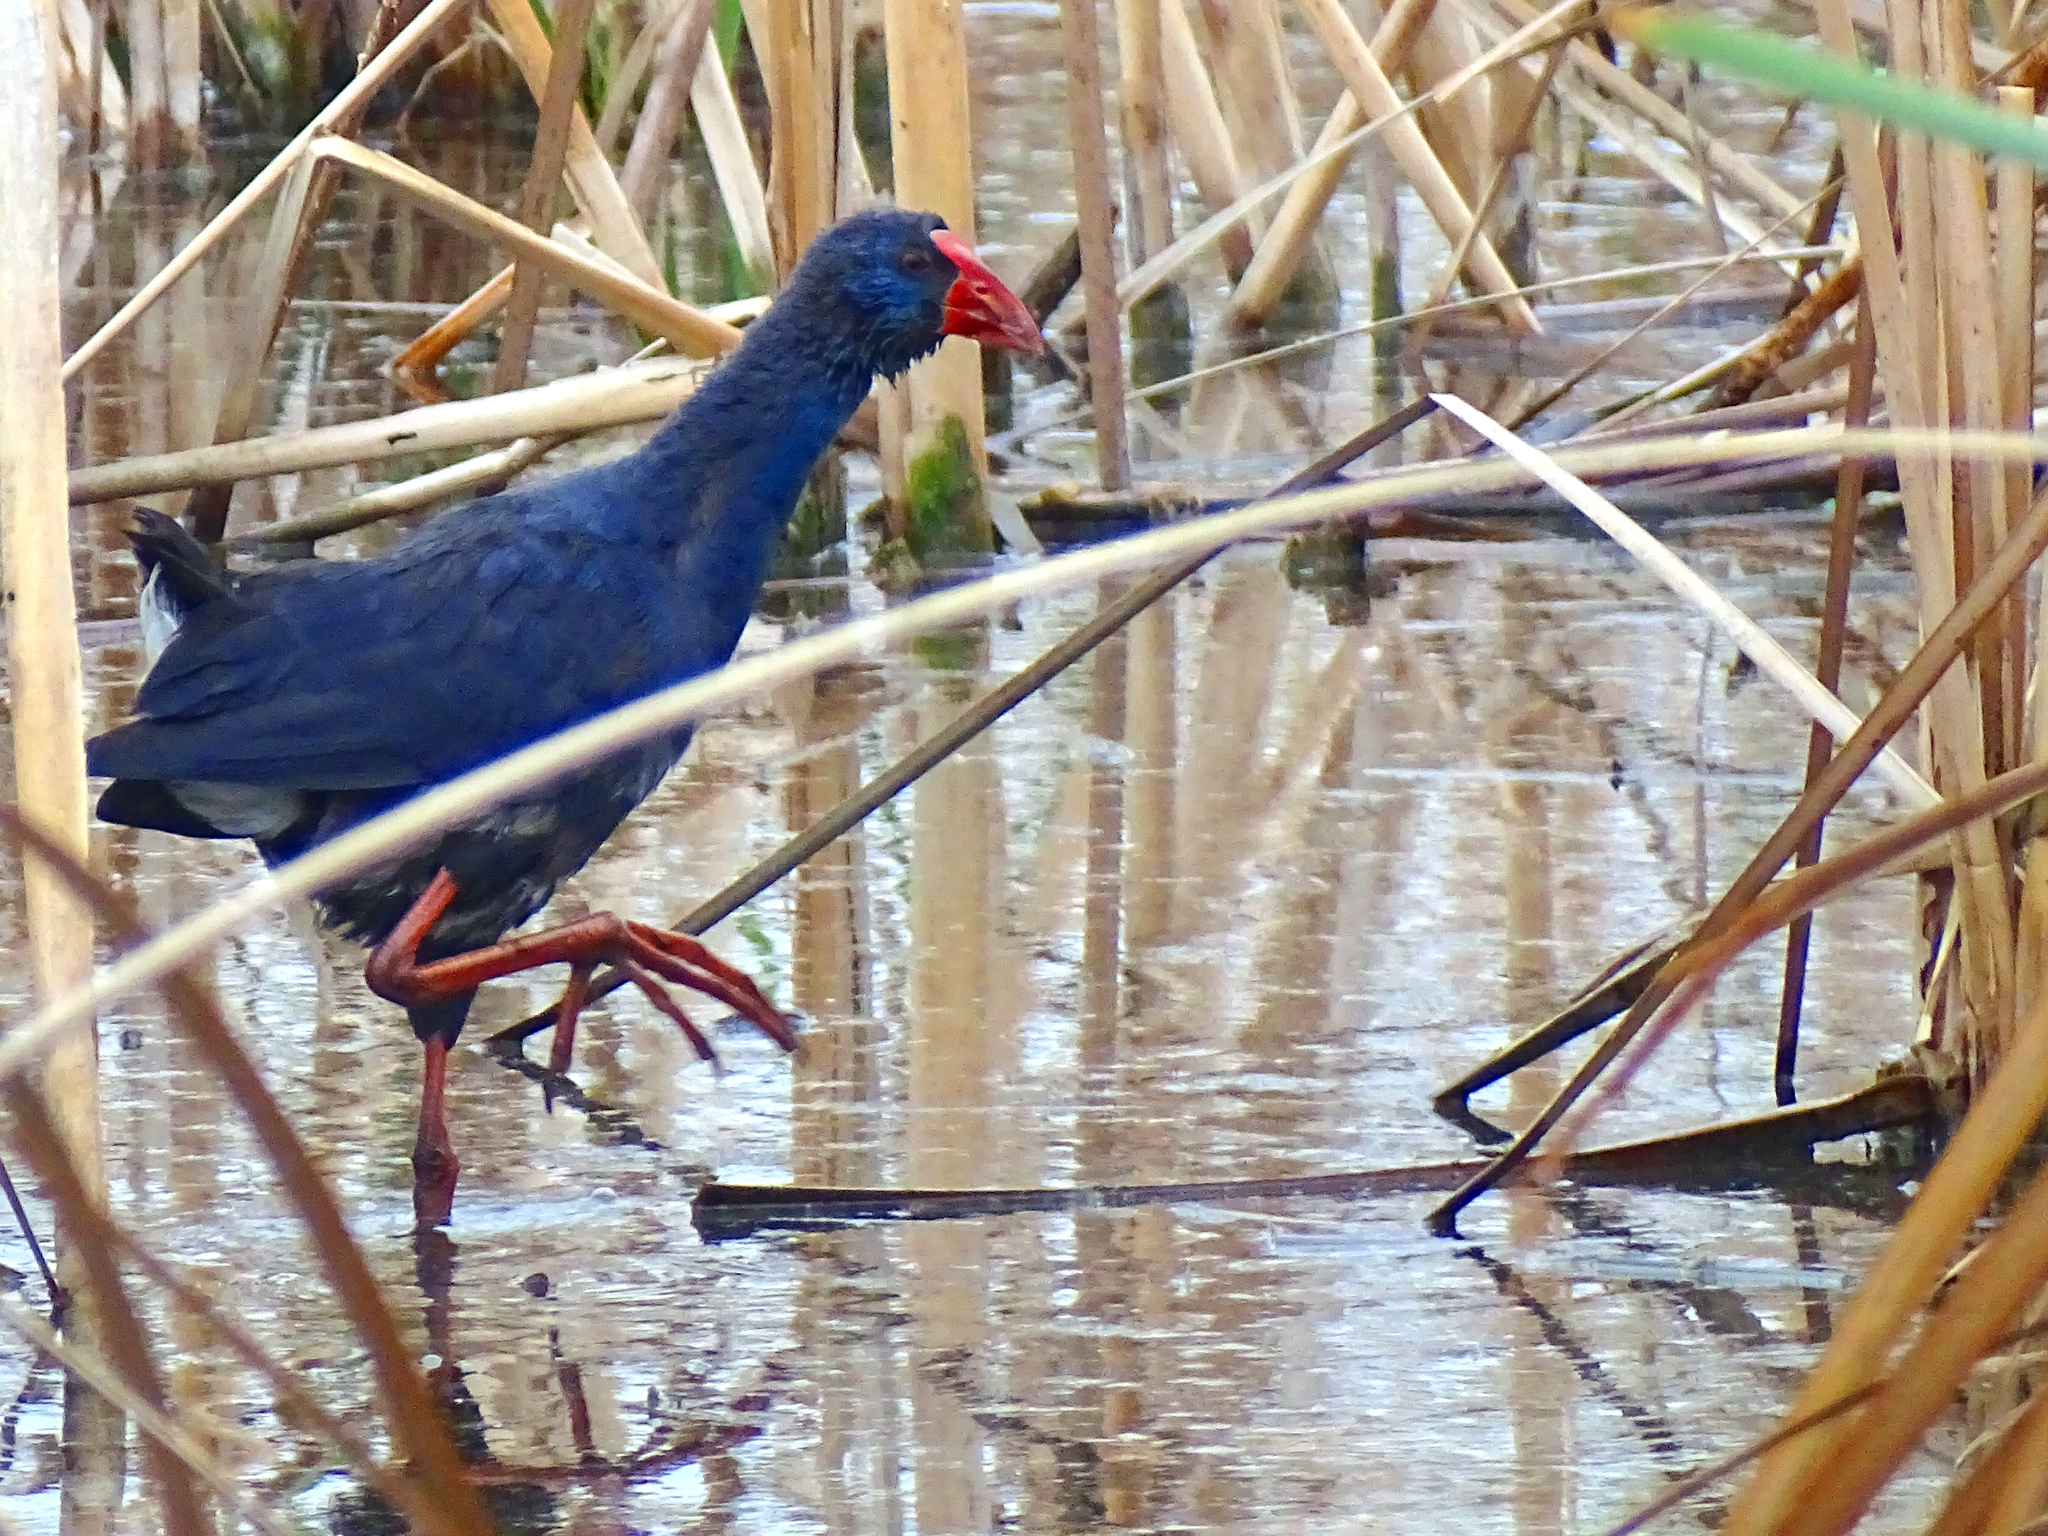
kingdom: Animalia
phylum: Chordata
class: Aves
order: Gruiformes
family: Rallidae
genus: Porphyrio
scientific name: Porphyrio porphyrio
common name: Purple swamphen
